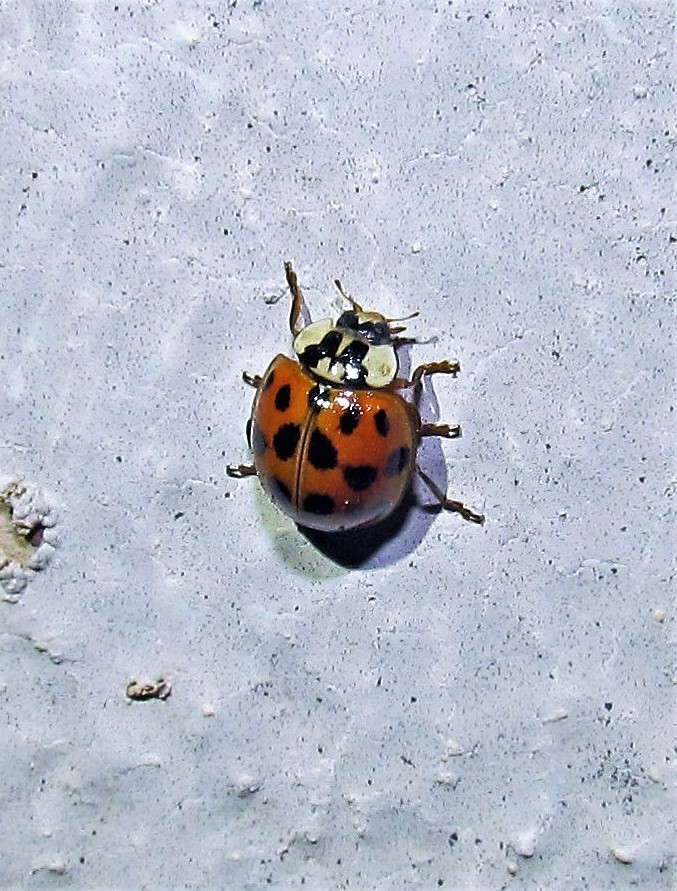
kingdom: Animalia
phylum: Arthropoda
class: Insecta
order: Coleoptera
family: Coccinellidae
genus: Harmonia
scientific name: Harmonia axyridis
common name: Harlequin ladybird
